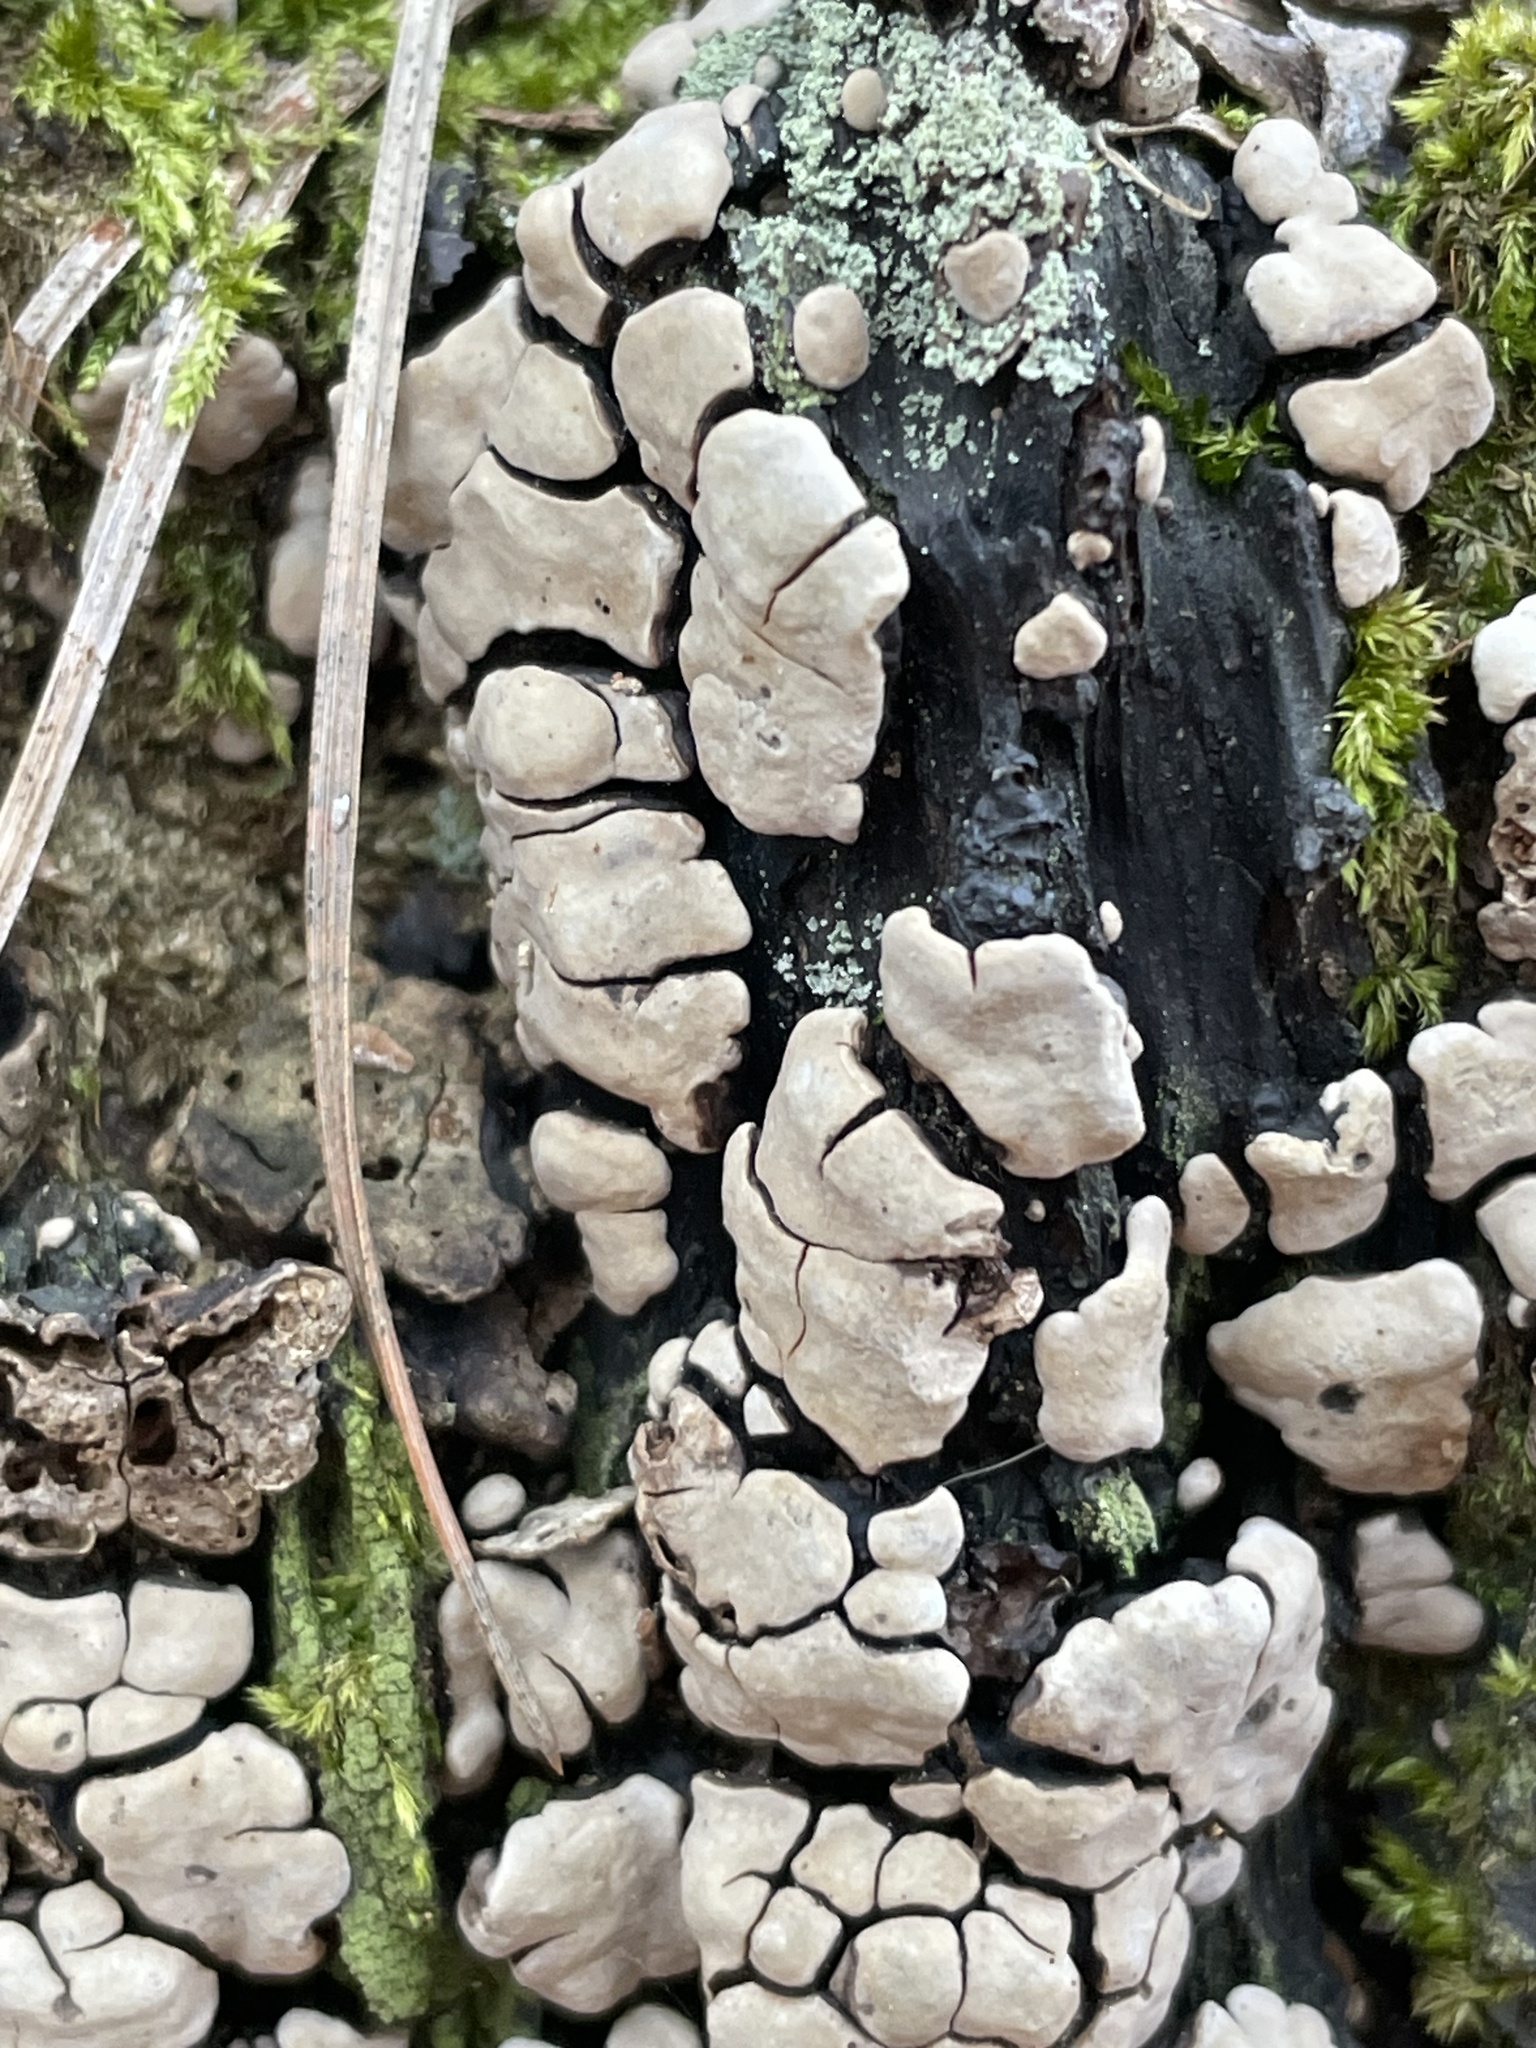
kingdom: Fungi
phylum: Basidiomycota
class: Agaricomycetes
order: Russulales
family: Stereaceae
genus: Xylobolus
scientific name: Xylobolus frustulatus
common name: Ceramic parchment
